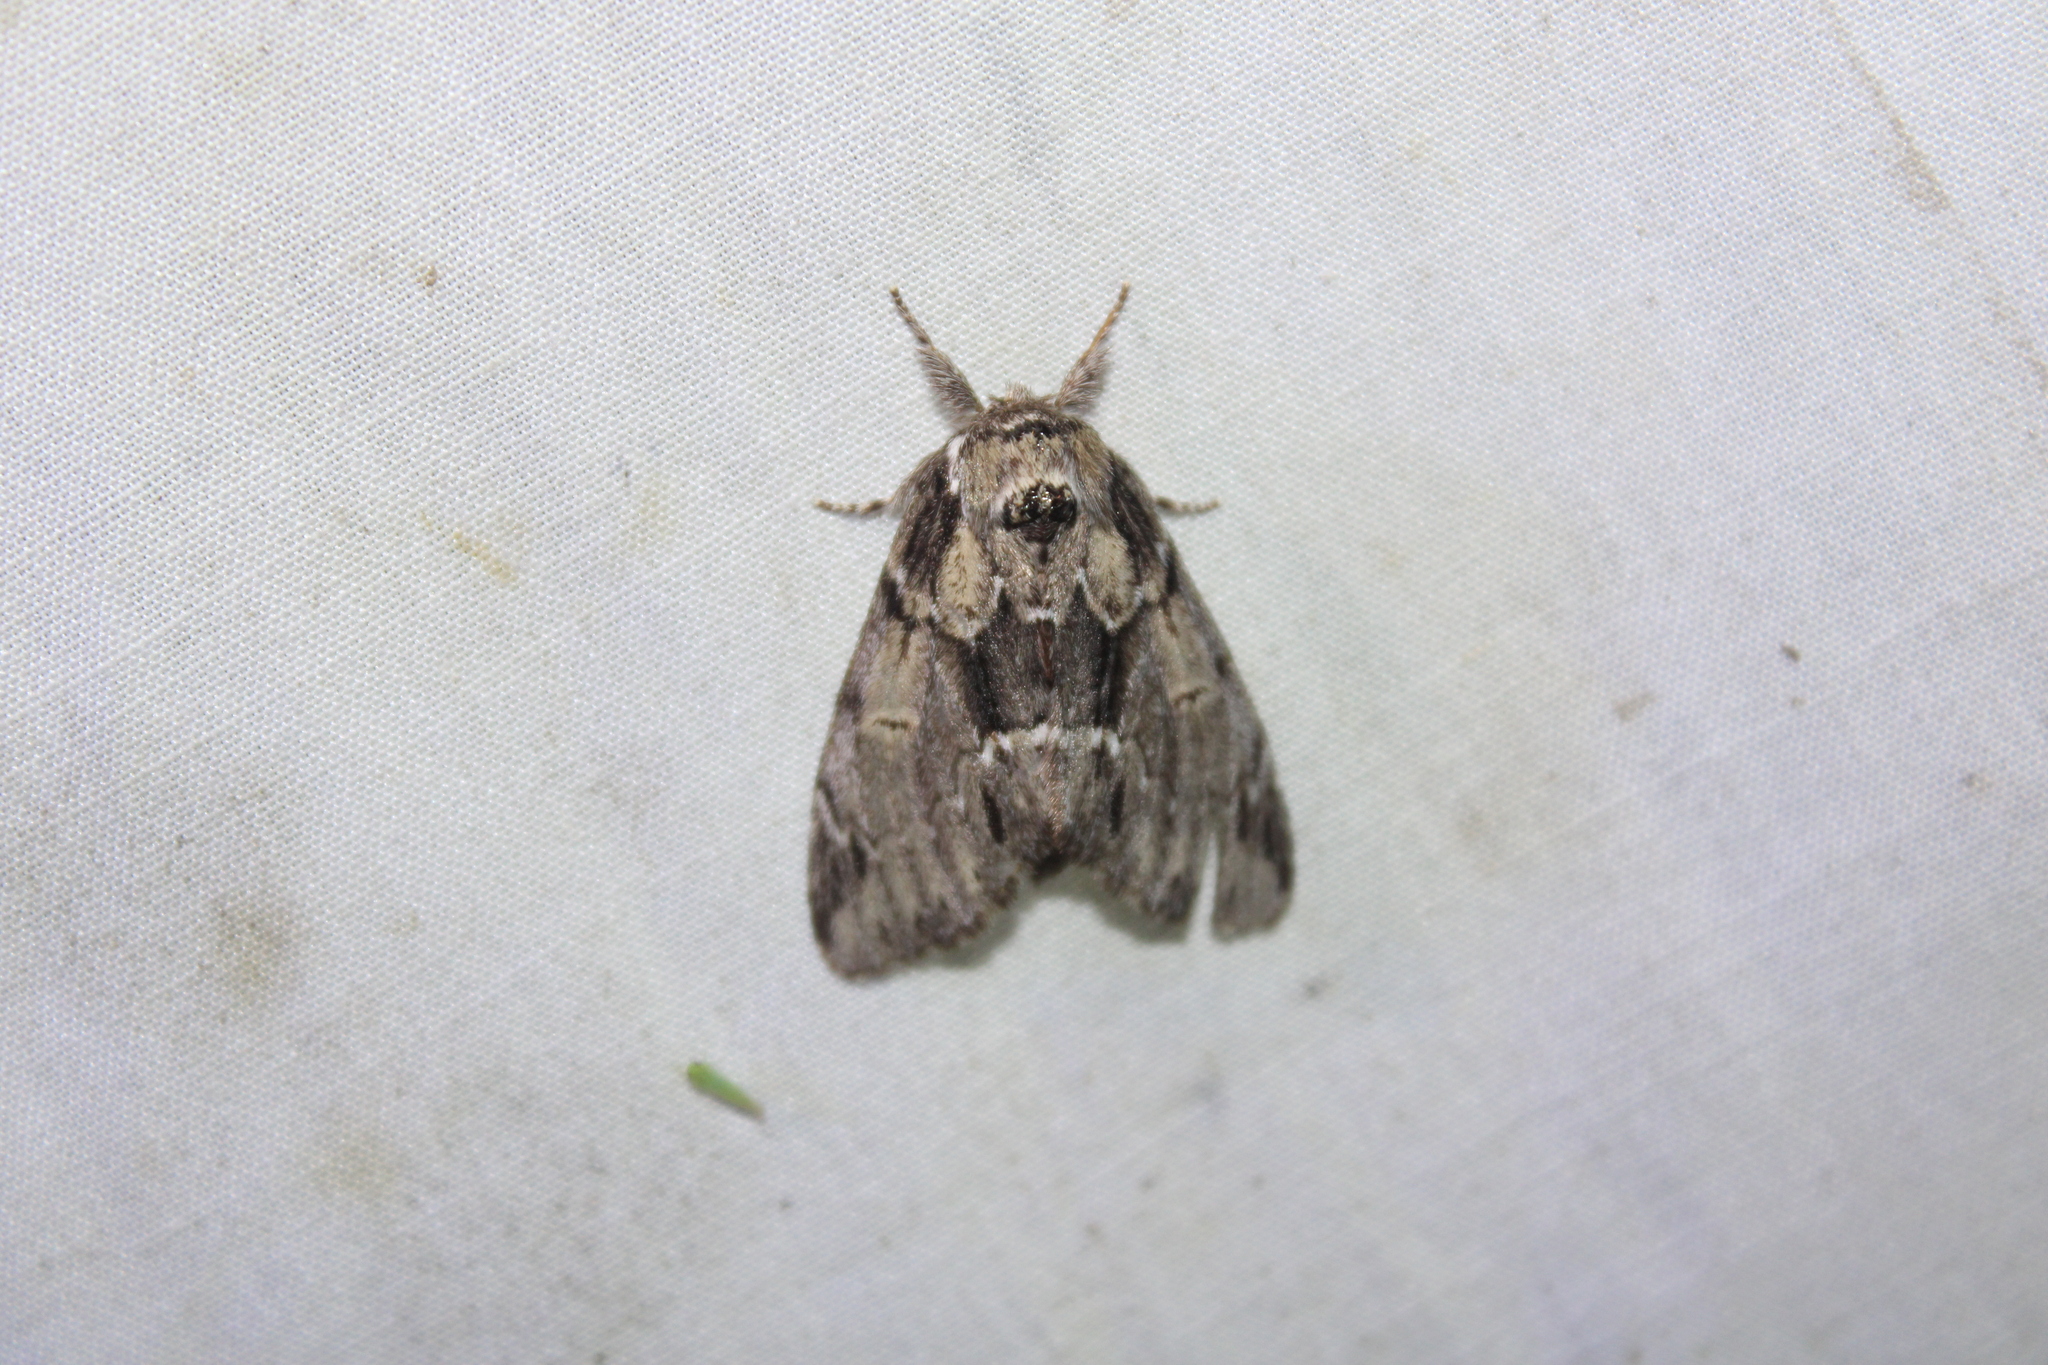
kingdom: Animalia
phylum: Arthropoda
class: Insecta
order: Lepidoptera
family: Notodontidae
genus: Paraeschra
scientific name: Paraeschra georgica
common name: Georgian prominent
